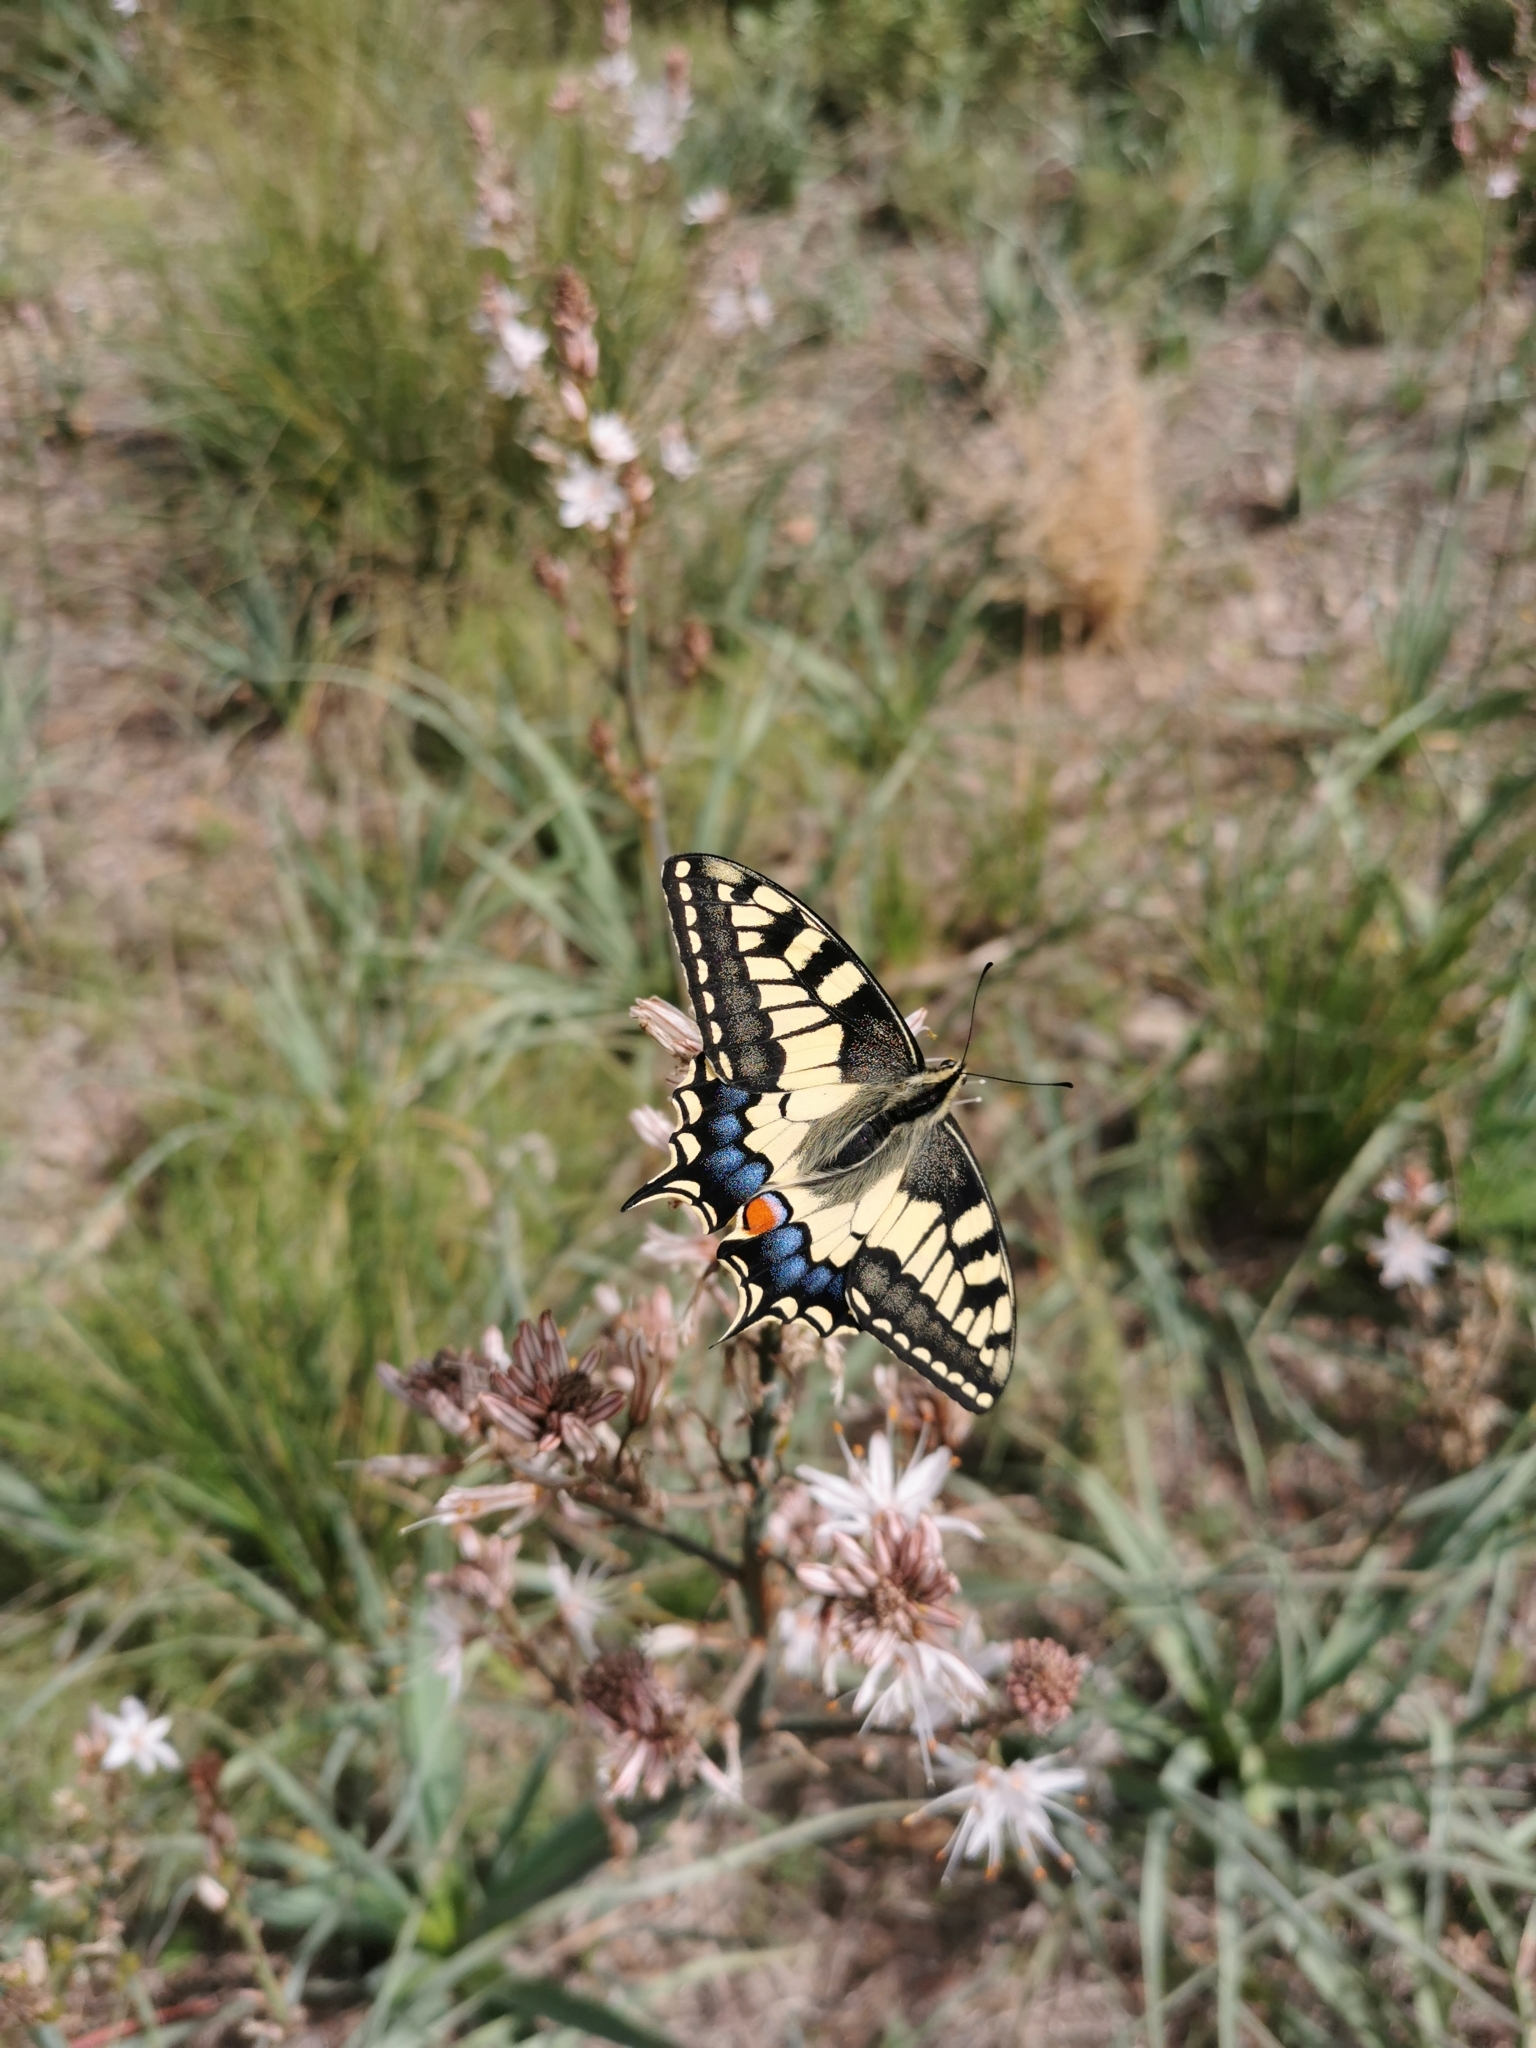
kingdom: Animalia
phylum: Arthropoda
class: Insecta
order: Lepidoptera
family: Papilionidae
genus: Papilio
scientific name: Papilio machaon
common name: Swallowtail
